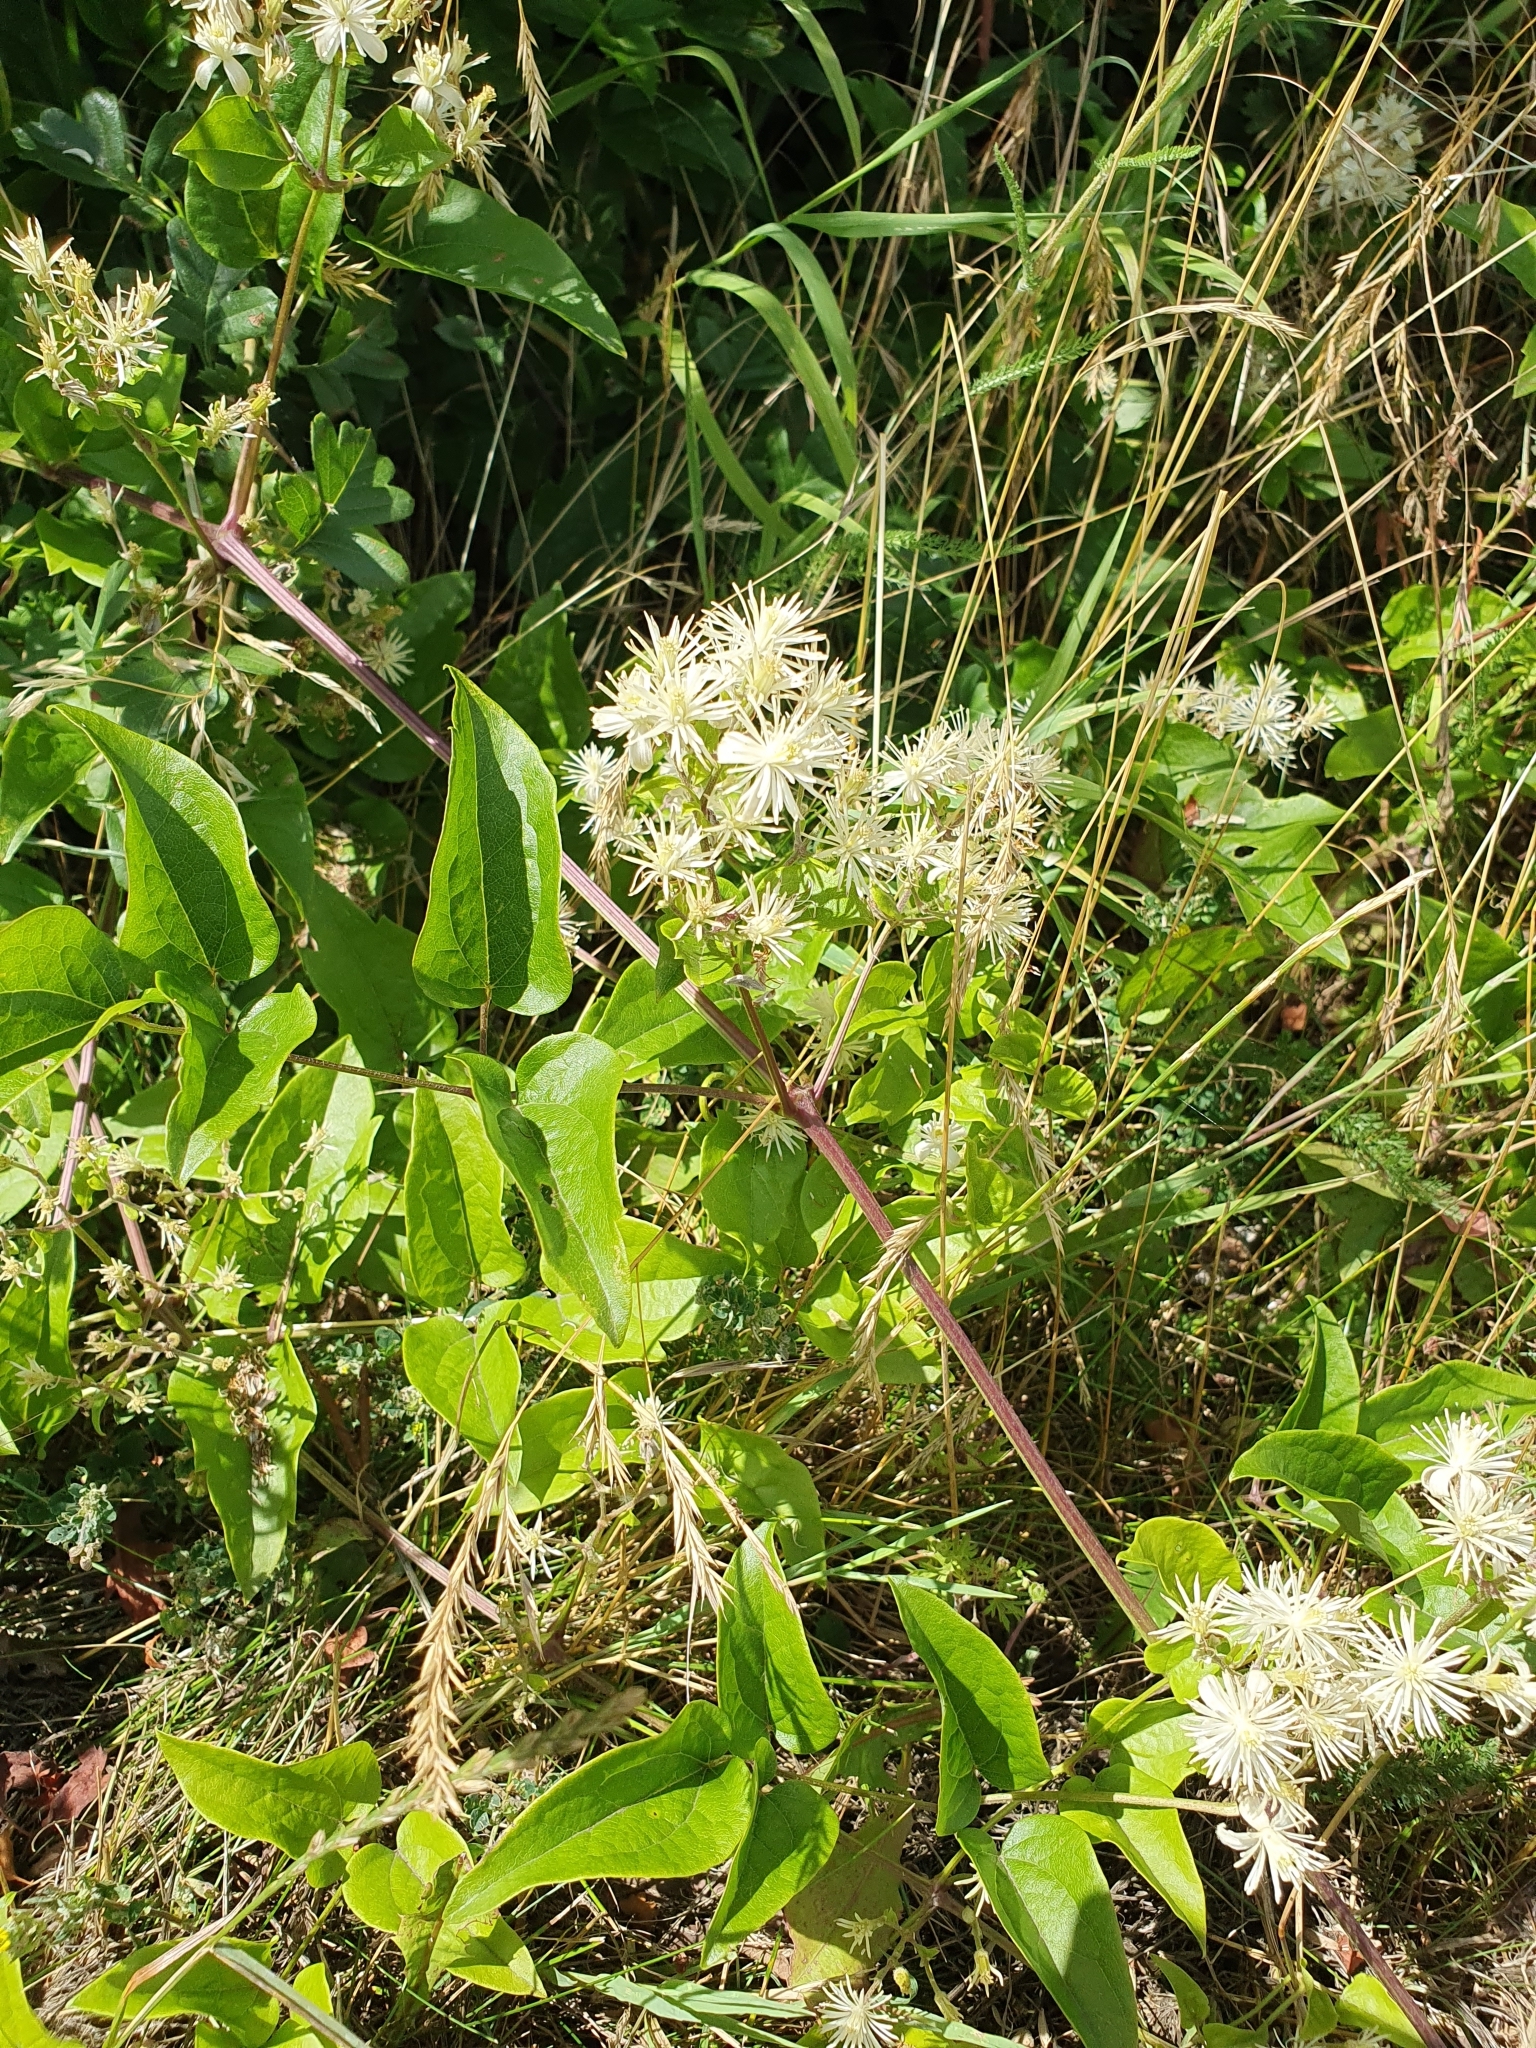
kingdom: Plantae
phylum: Tracheophyta
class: Magnoliopsida
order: Ranunculales
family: Ranunculaceae
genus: Clematis
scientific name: Clematis vitalba
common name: Evergreen clematis
